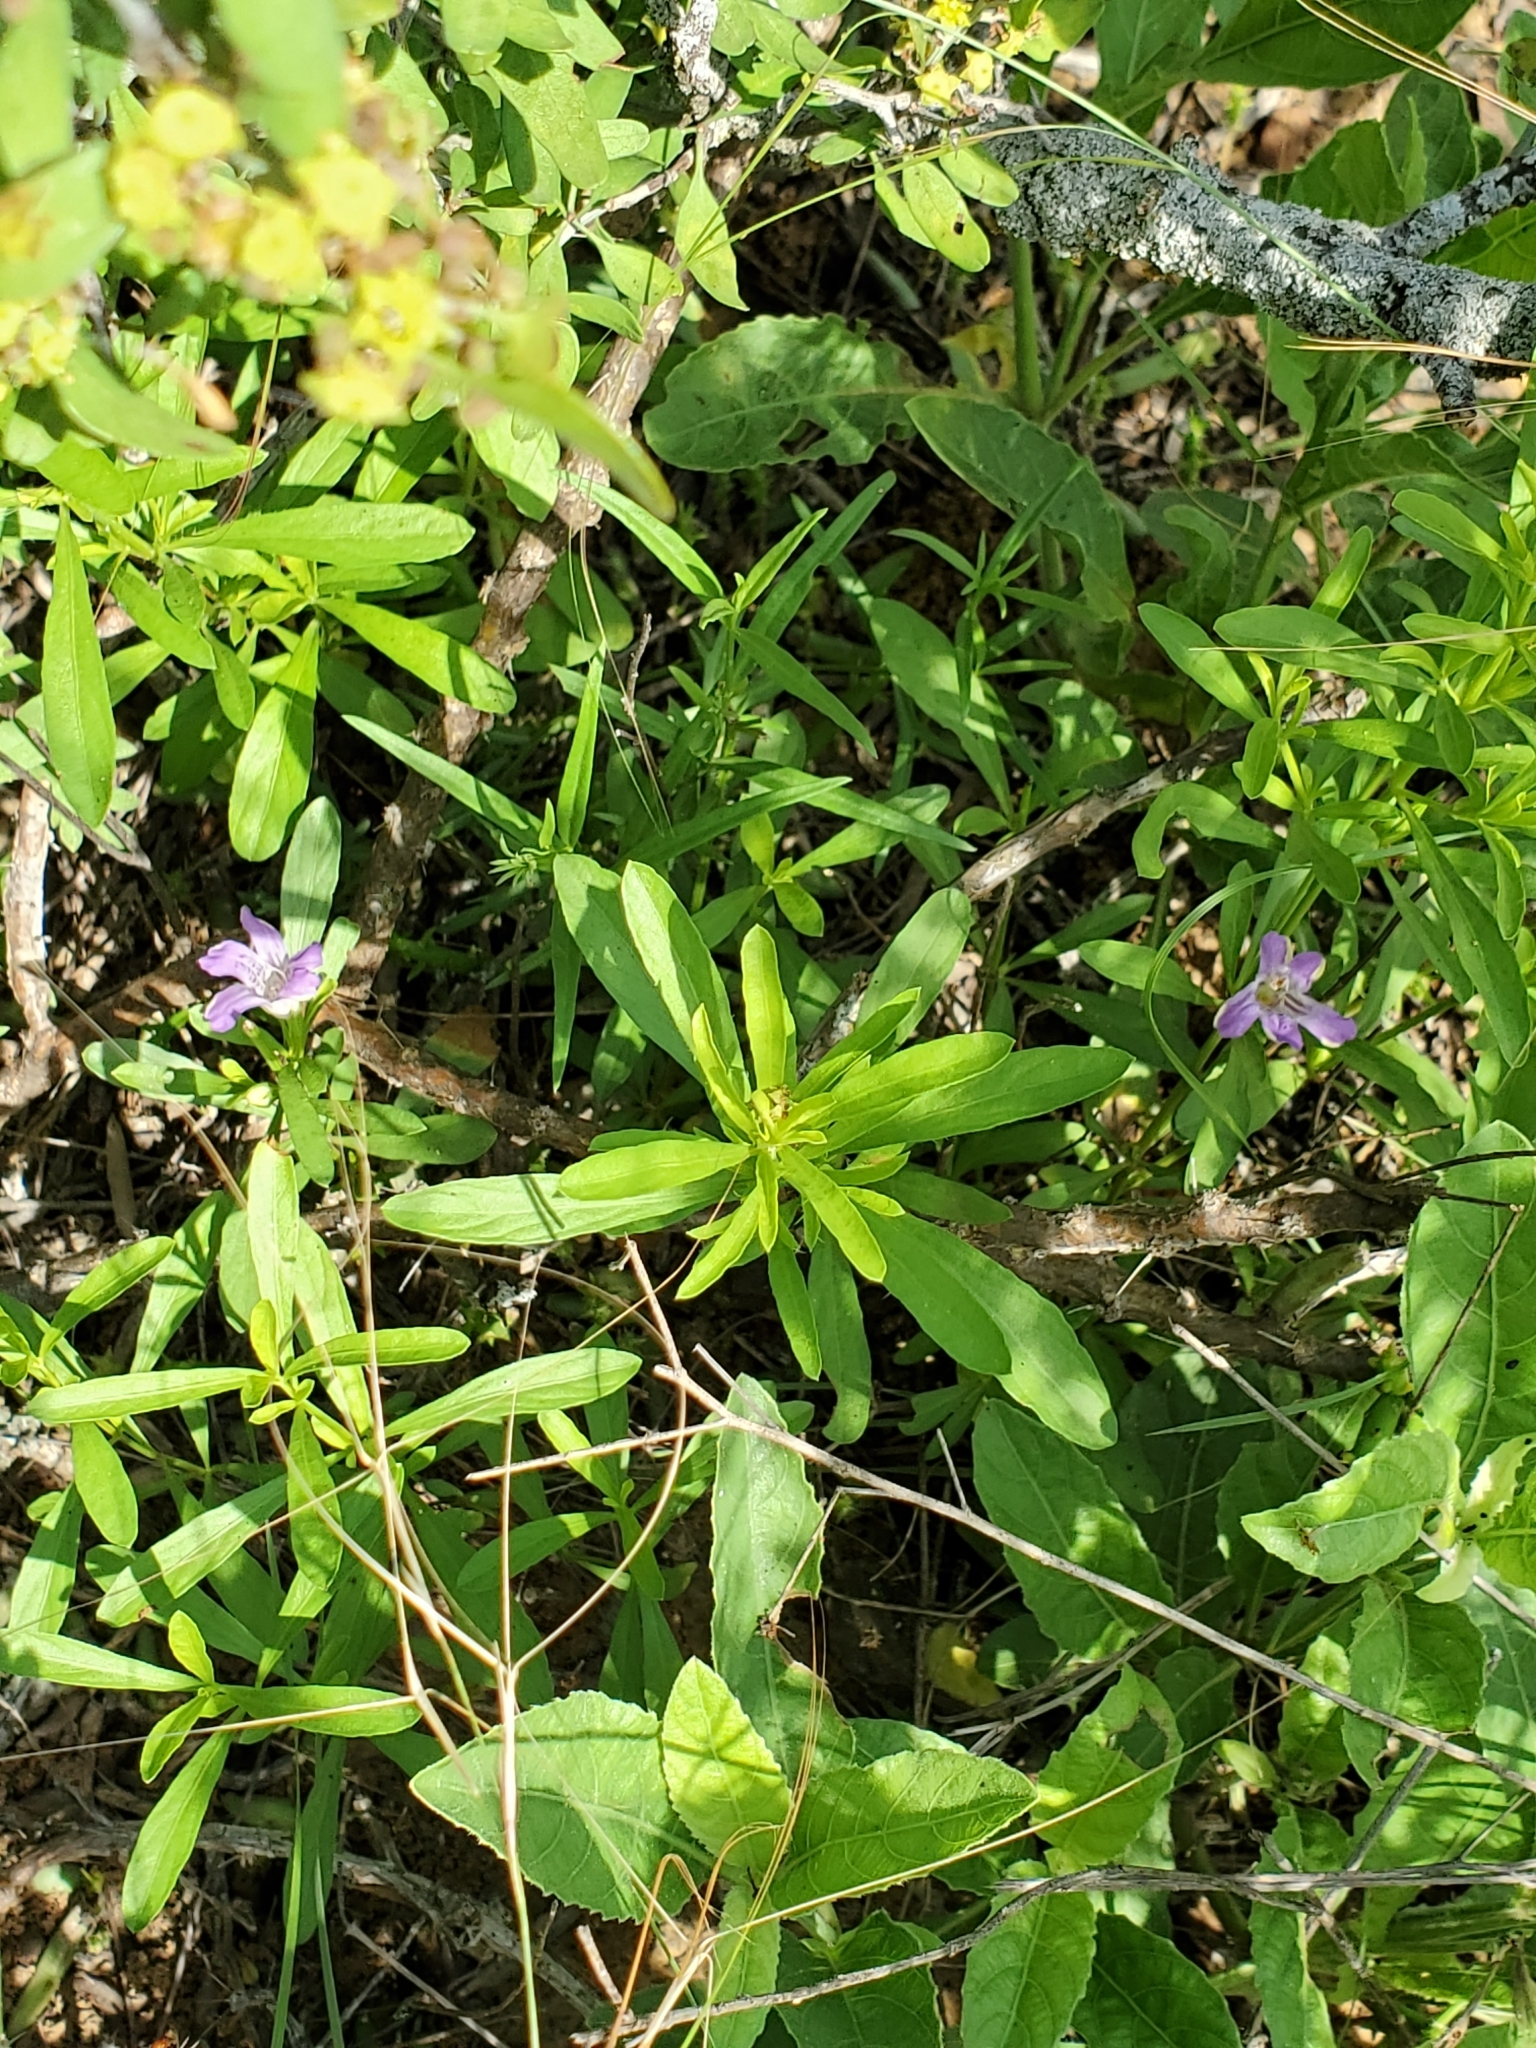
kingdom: Plantae
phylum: Tracheophyta
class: Magnoliopsida
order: Lamiales
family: Acanthaceae
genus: Dyschoriste
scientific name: Dyschoriste linearis
